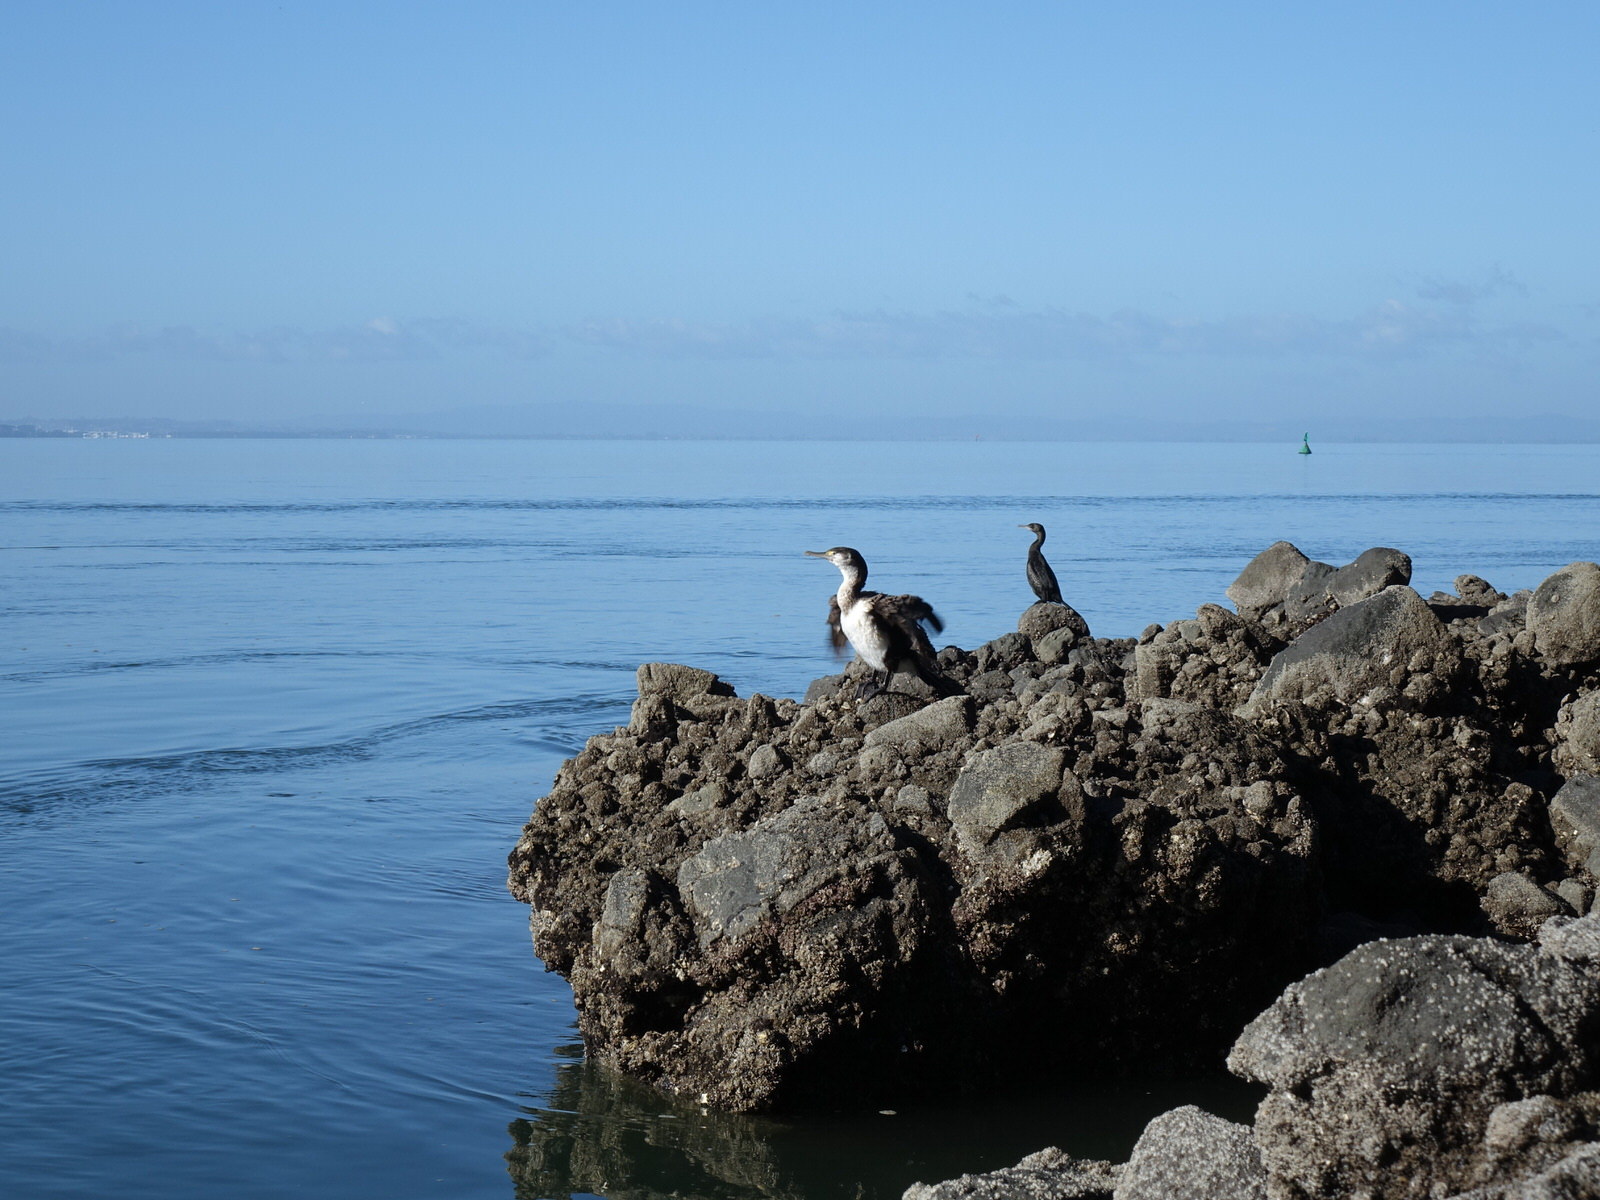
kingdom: Animalia
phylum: Chordata
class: Aves
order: Suliformes
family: Phalacrocoracidae
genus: Phalacrocorax
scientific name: Phalacrocorax varius
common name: Pied cormorant
